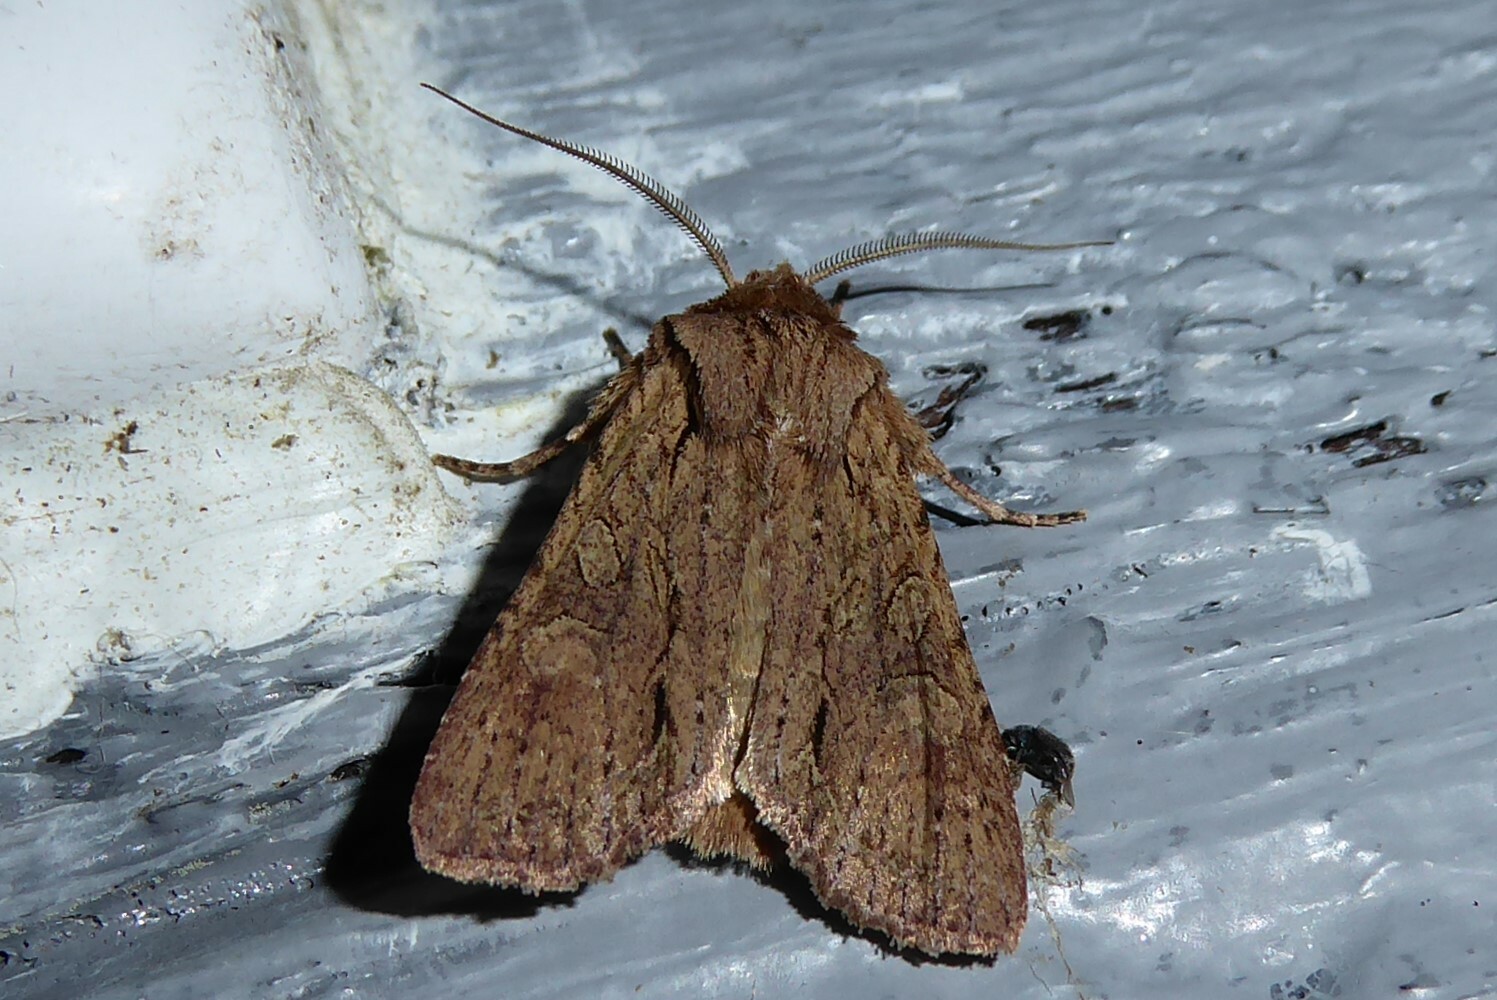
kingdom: Animalia
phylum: Arthropoda
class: Insecta
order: Lepidoptera
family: Noctuidae
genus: Ichneutica
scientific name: Ichneutica
